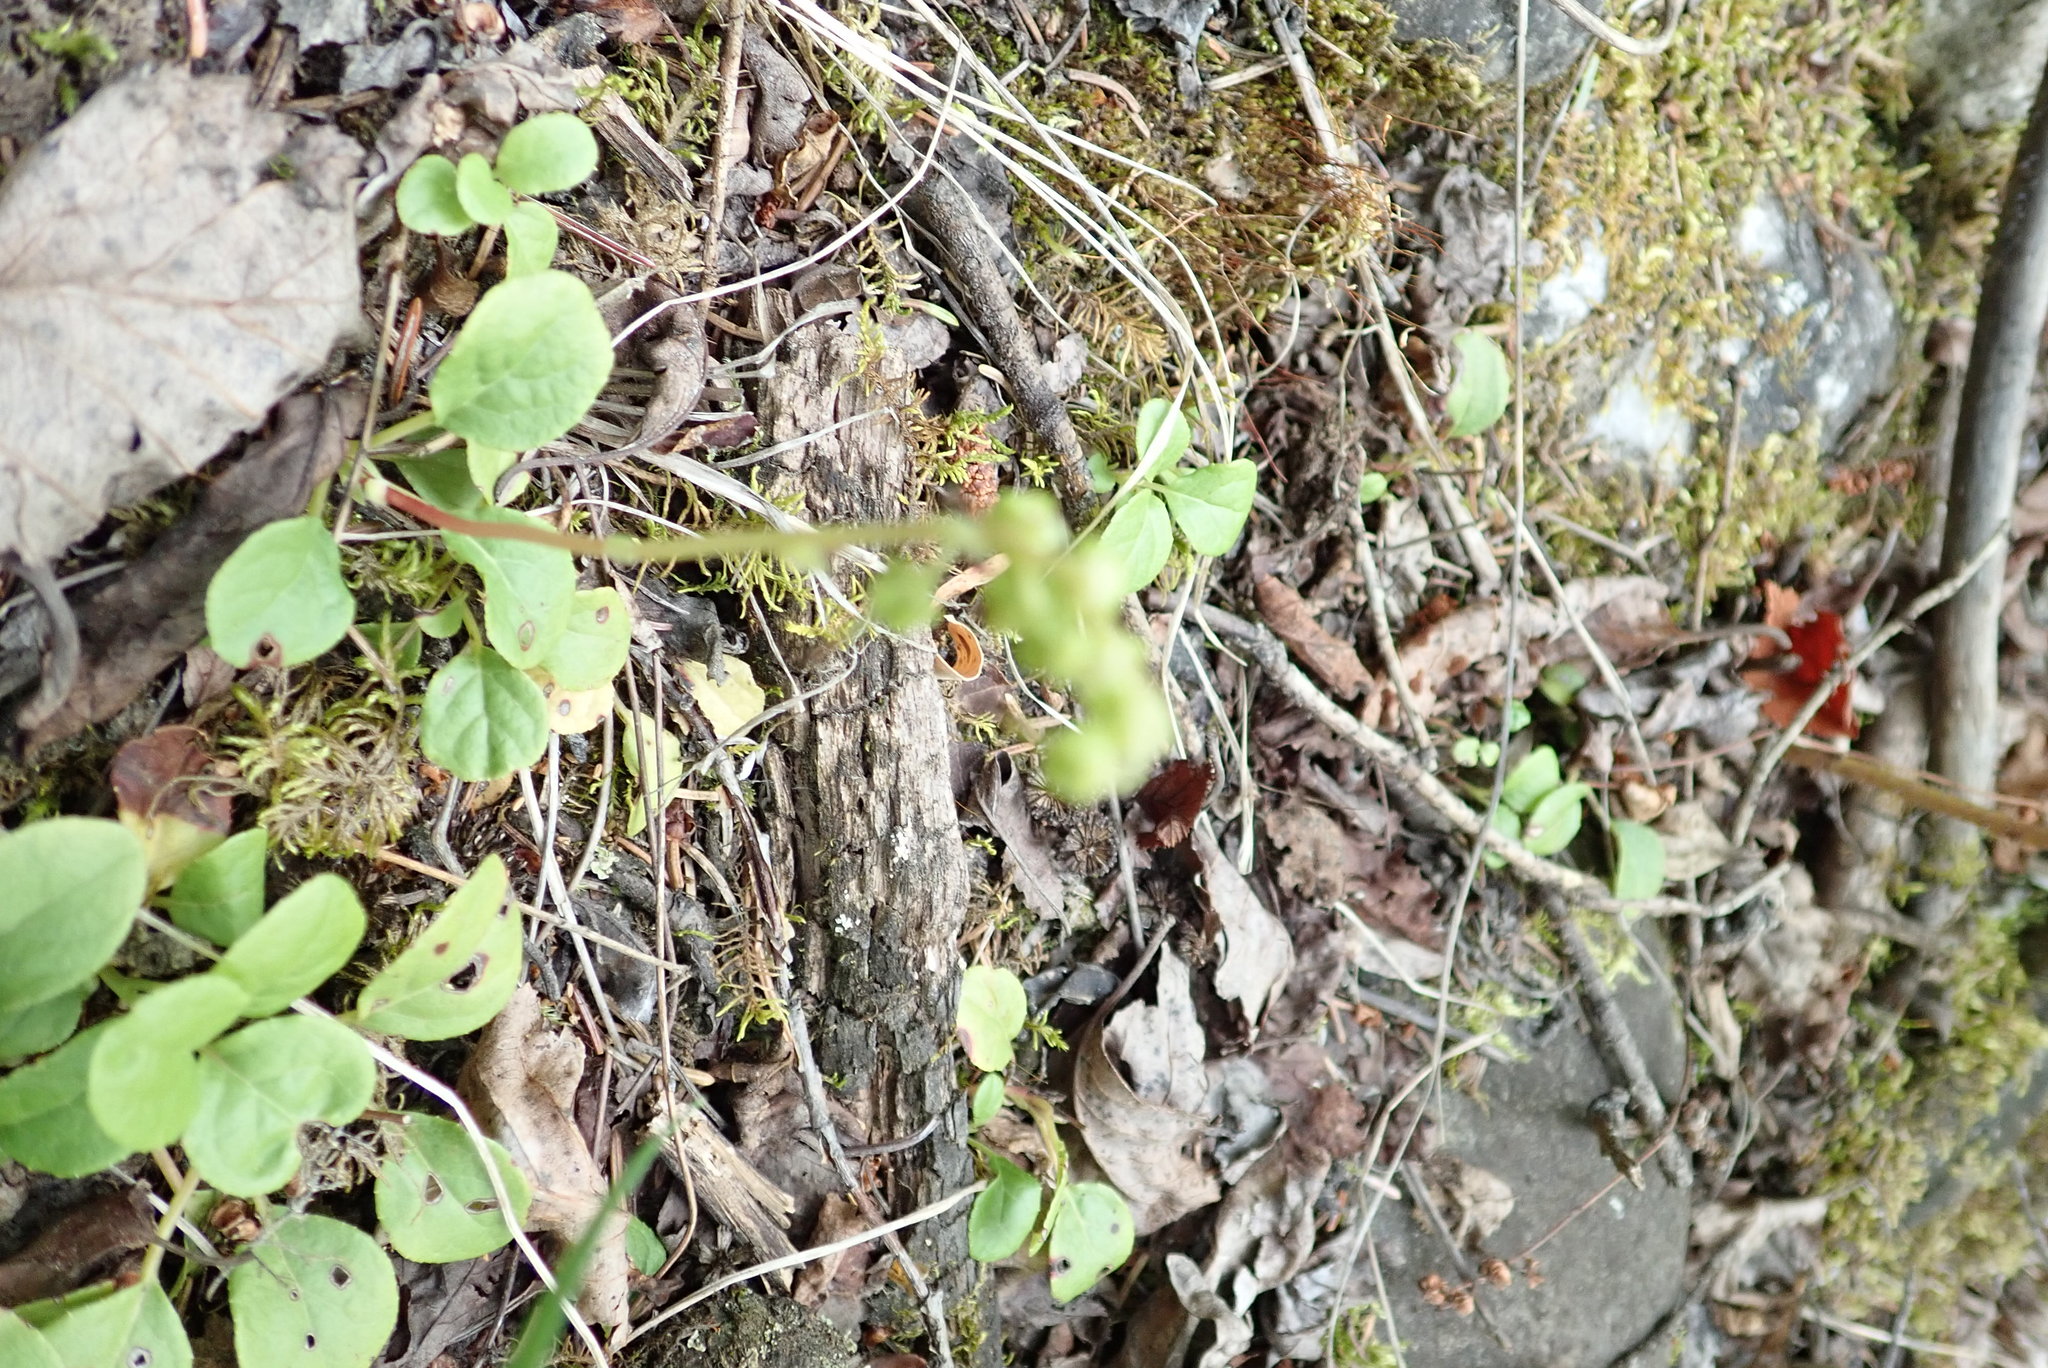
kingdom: Plantae
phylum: Tracheophyta
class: Magnoliopsida
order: Ericales
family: Ericaceae
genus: Orthilia
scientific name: Orthilia secunda
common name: One-sided orthilia
